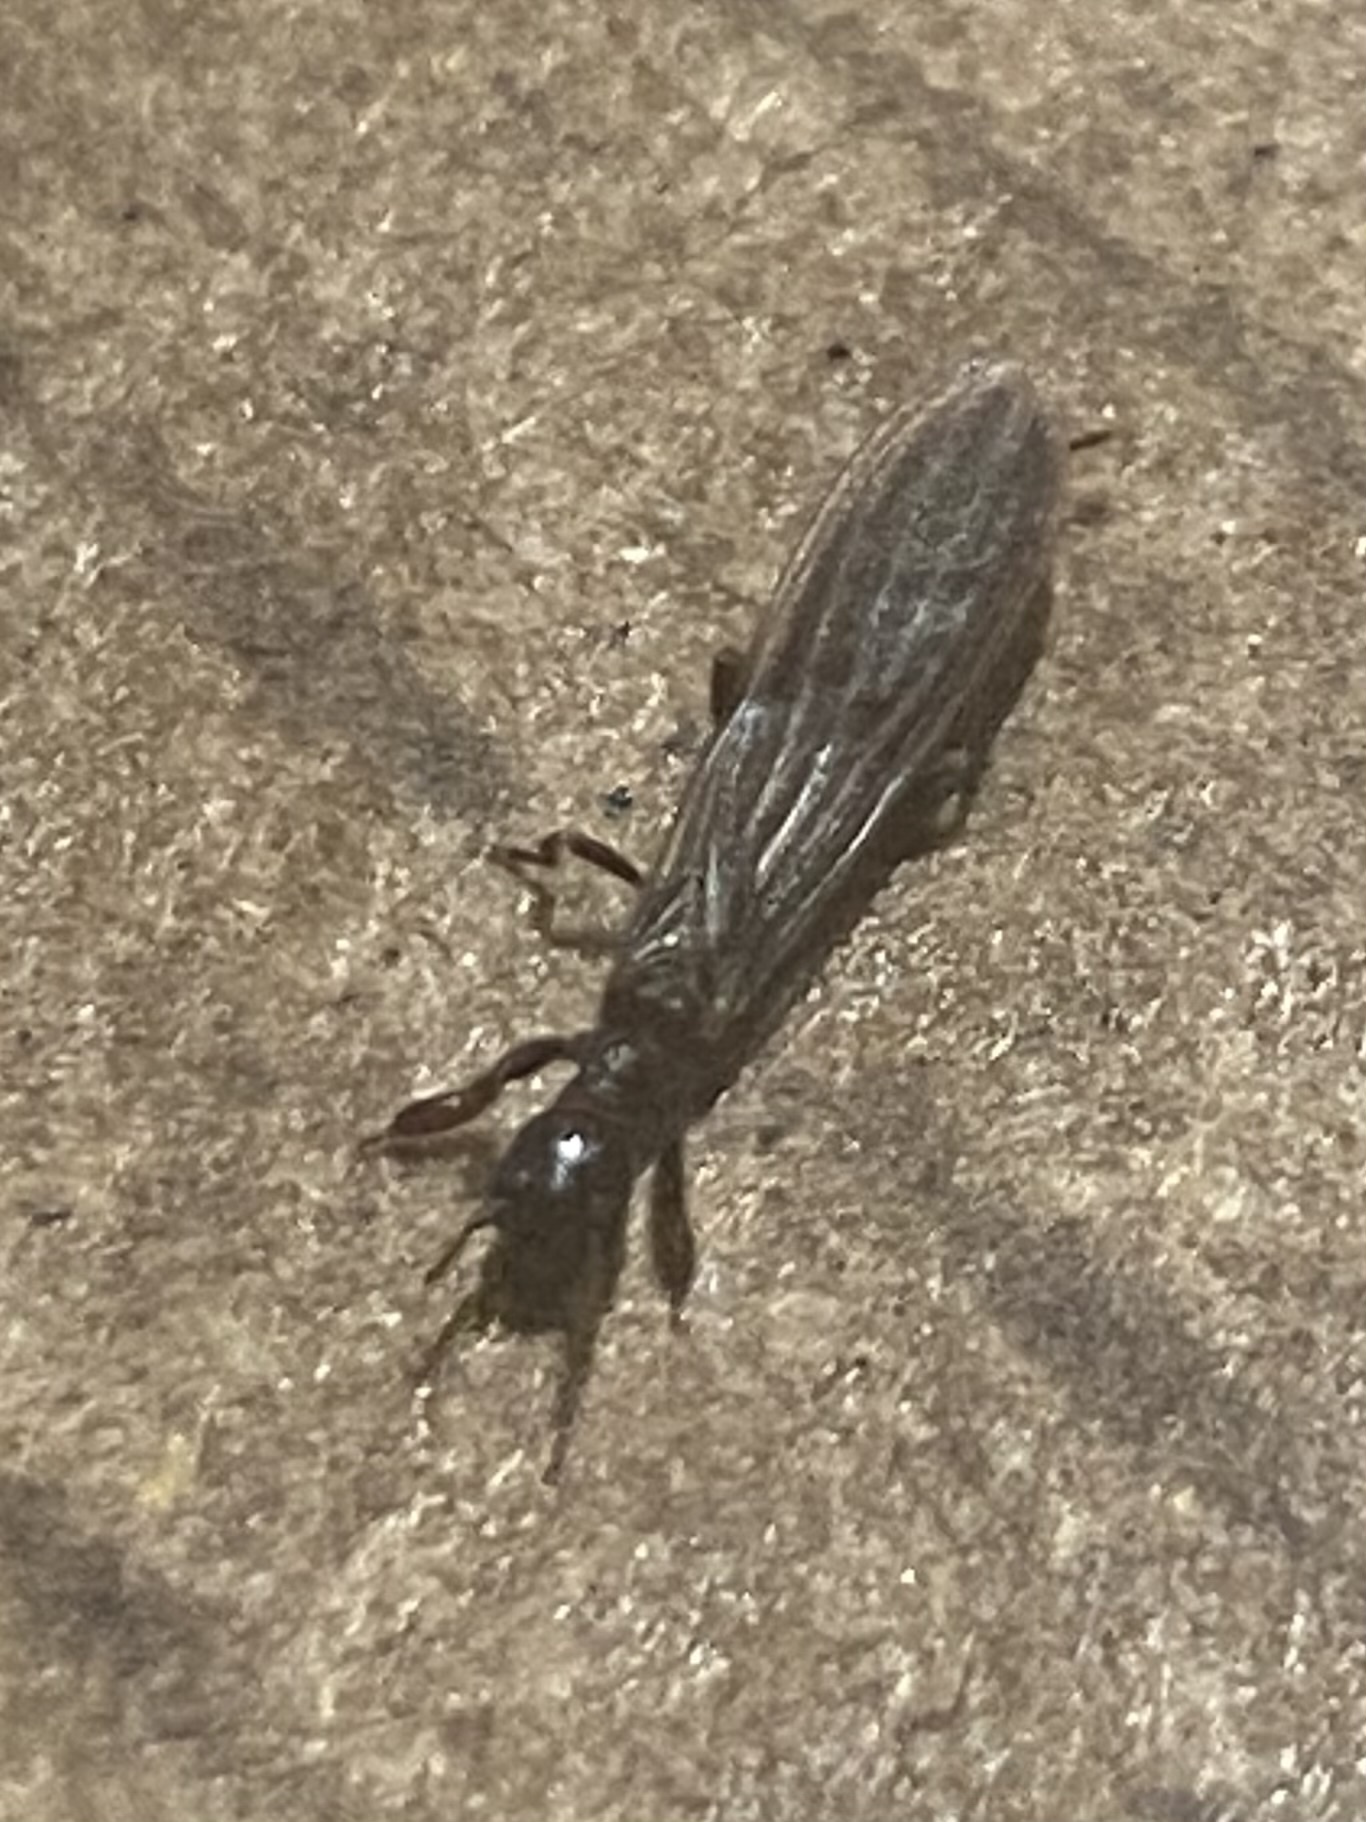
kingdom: Animalia
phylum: Arthropoda
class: Insecta
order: Embioptera
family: Oligotomidae
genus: Oligotoma
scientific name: Oligotoma nigra
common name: Black webspinner
